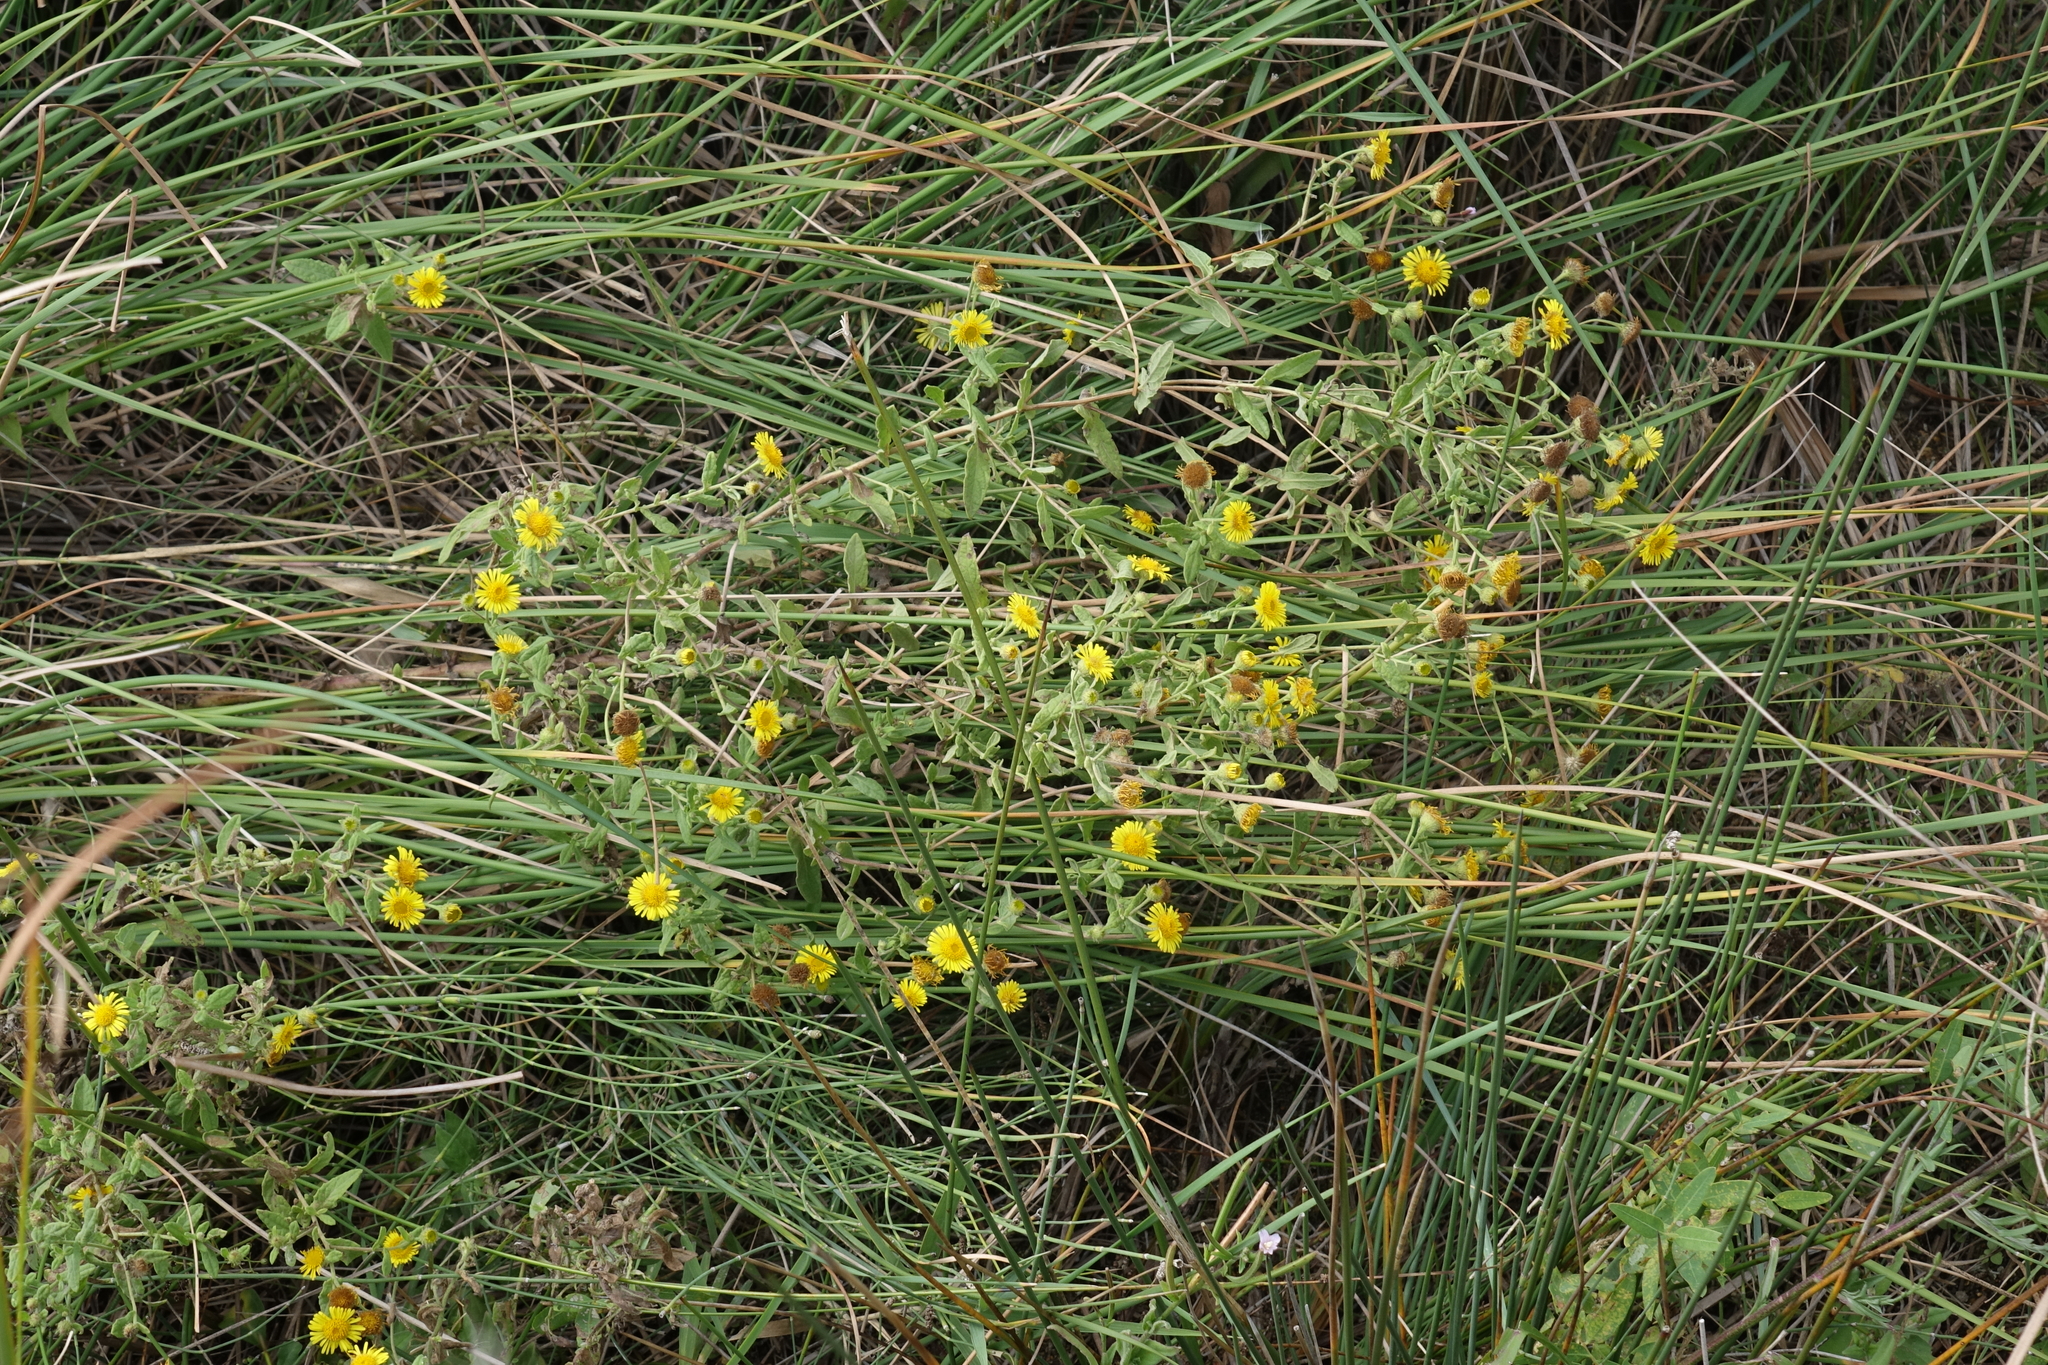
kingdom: Plantae
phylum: Tracheophyta
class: Magnoliopsida
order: Asterales
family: Asteraceae
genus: Pulicaria
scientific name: Pulicaria dysenterica
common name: Common fleabane
